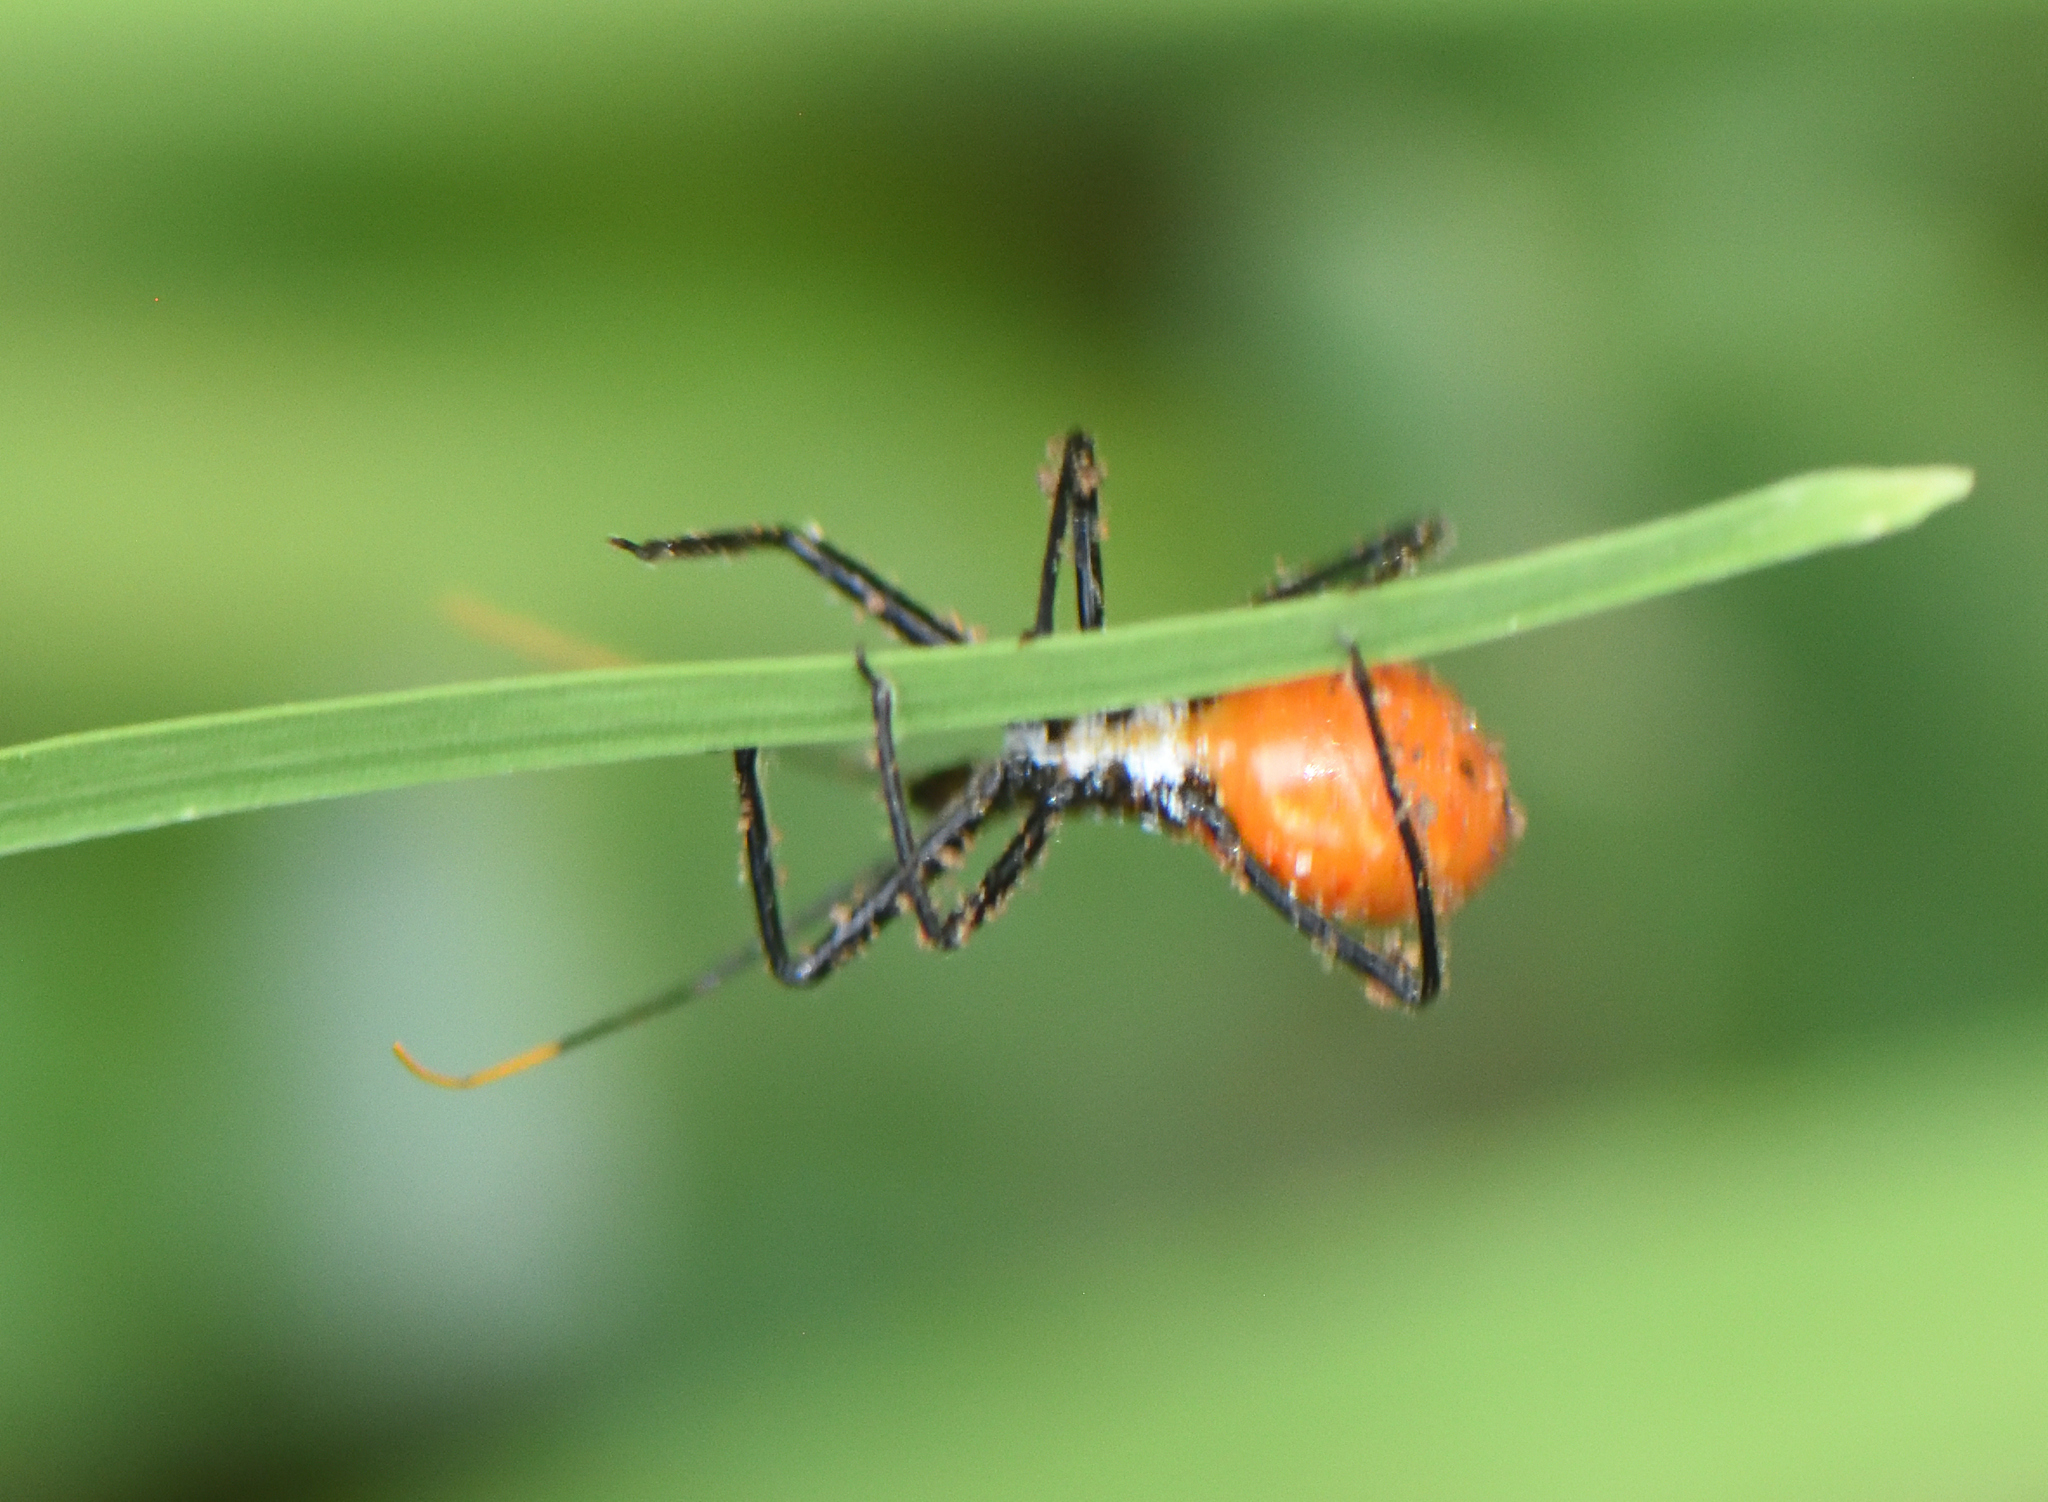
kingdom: Animalia
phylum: Arthropoda
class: Insecta
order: Hemiptera
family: Reduviidae
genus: Arilus
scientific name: Arilus cristatus
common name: North american wheel bug
